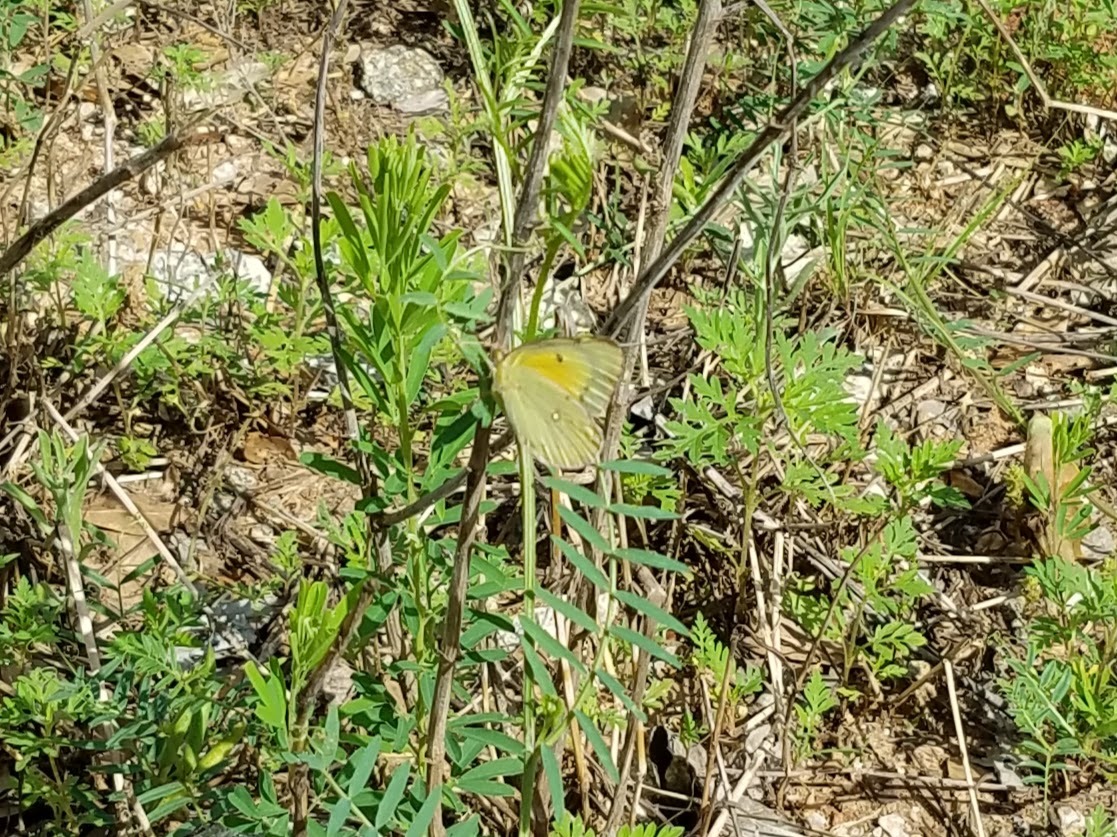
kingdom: Animalia
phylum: Arthropoda
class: Insecta
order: Lepidoptera
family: Pieridae
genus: Colias
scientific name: Colias eurytheme
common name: Alfalfa butterfly
